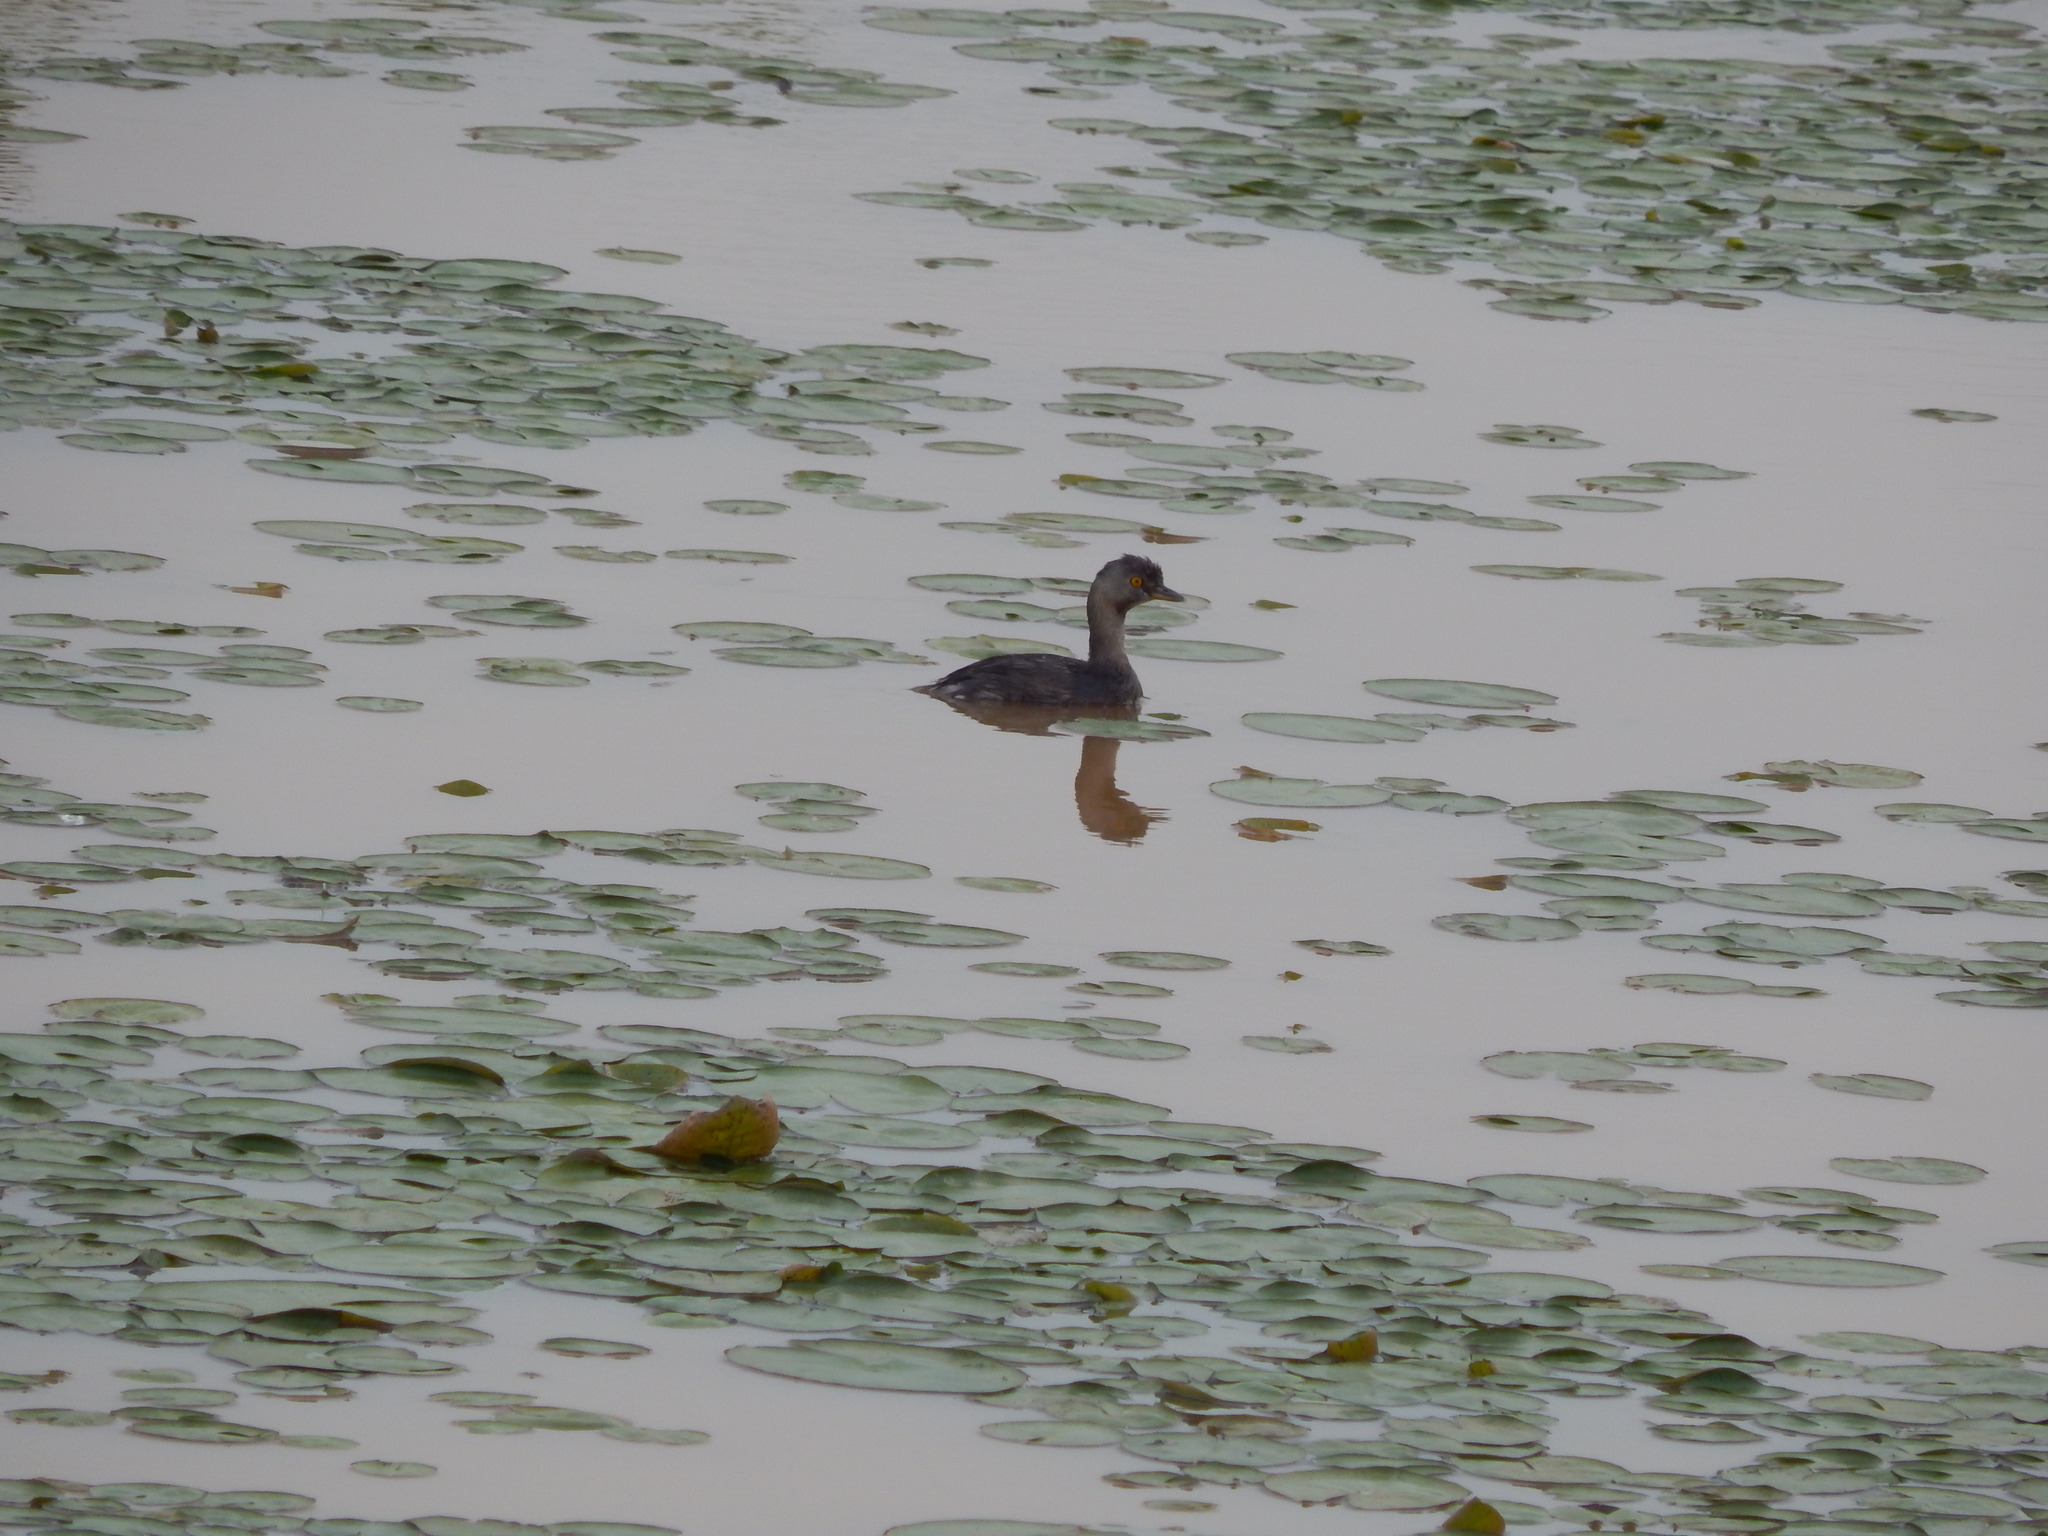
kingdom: Animalia
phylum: Chordata
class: Aves
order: Podicipediformes
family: Podicipedidae
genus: Tachybaptus
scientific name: Tachybaptus dominicus
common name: Least grebe
